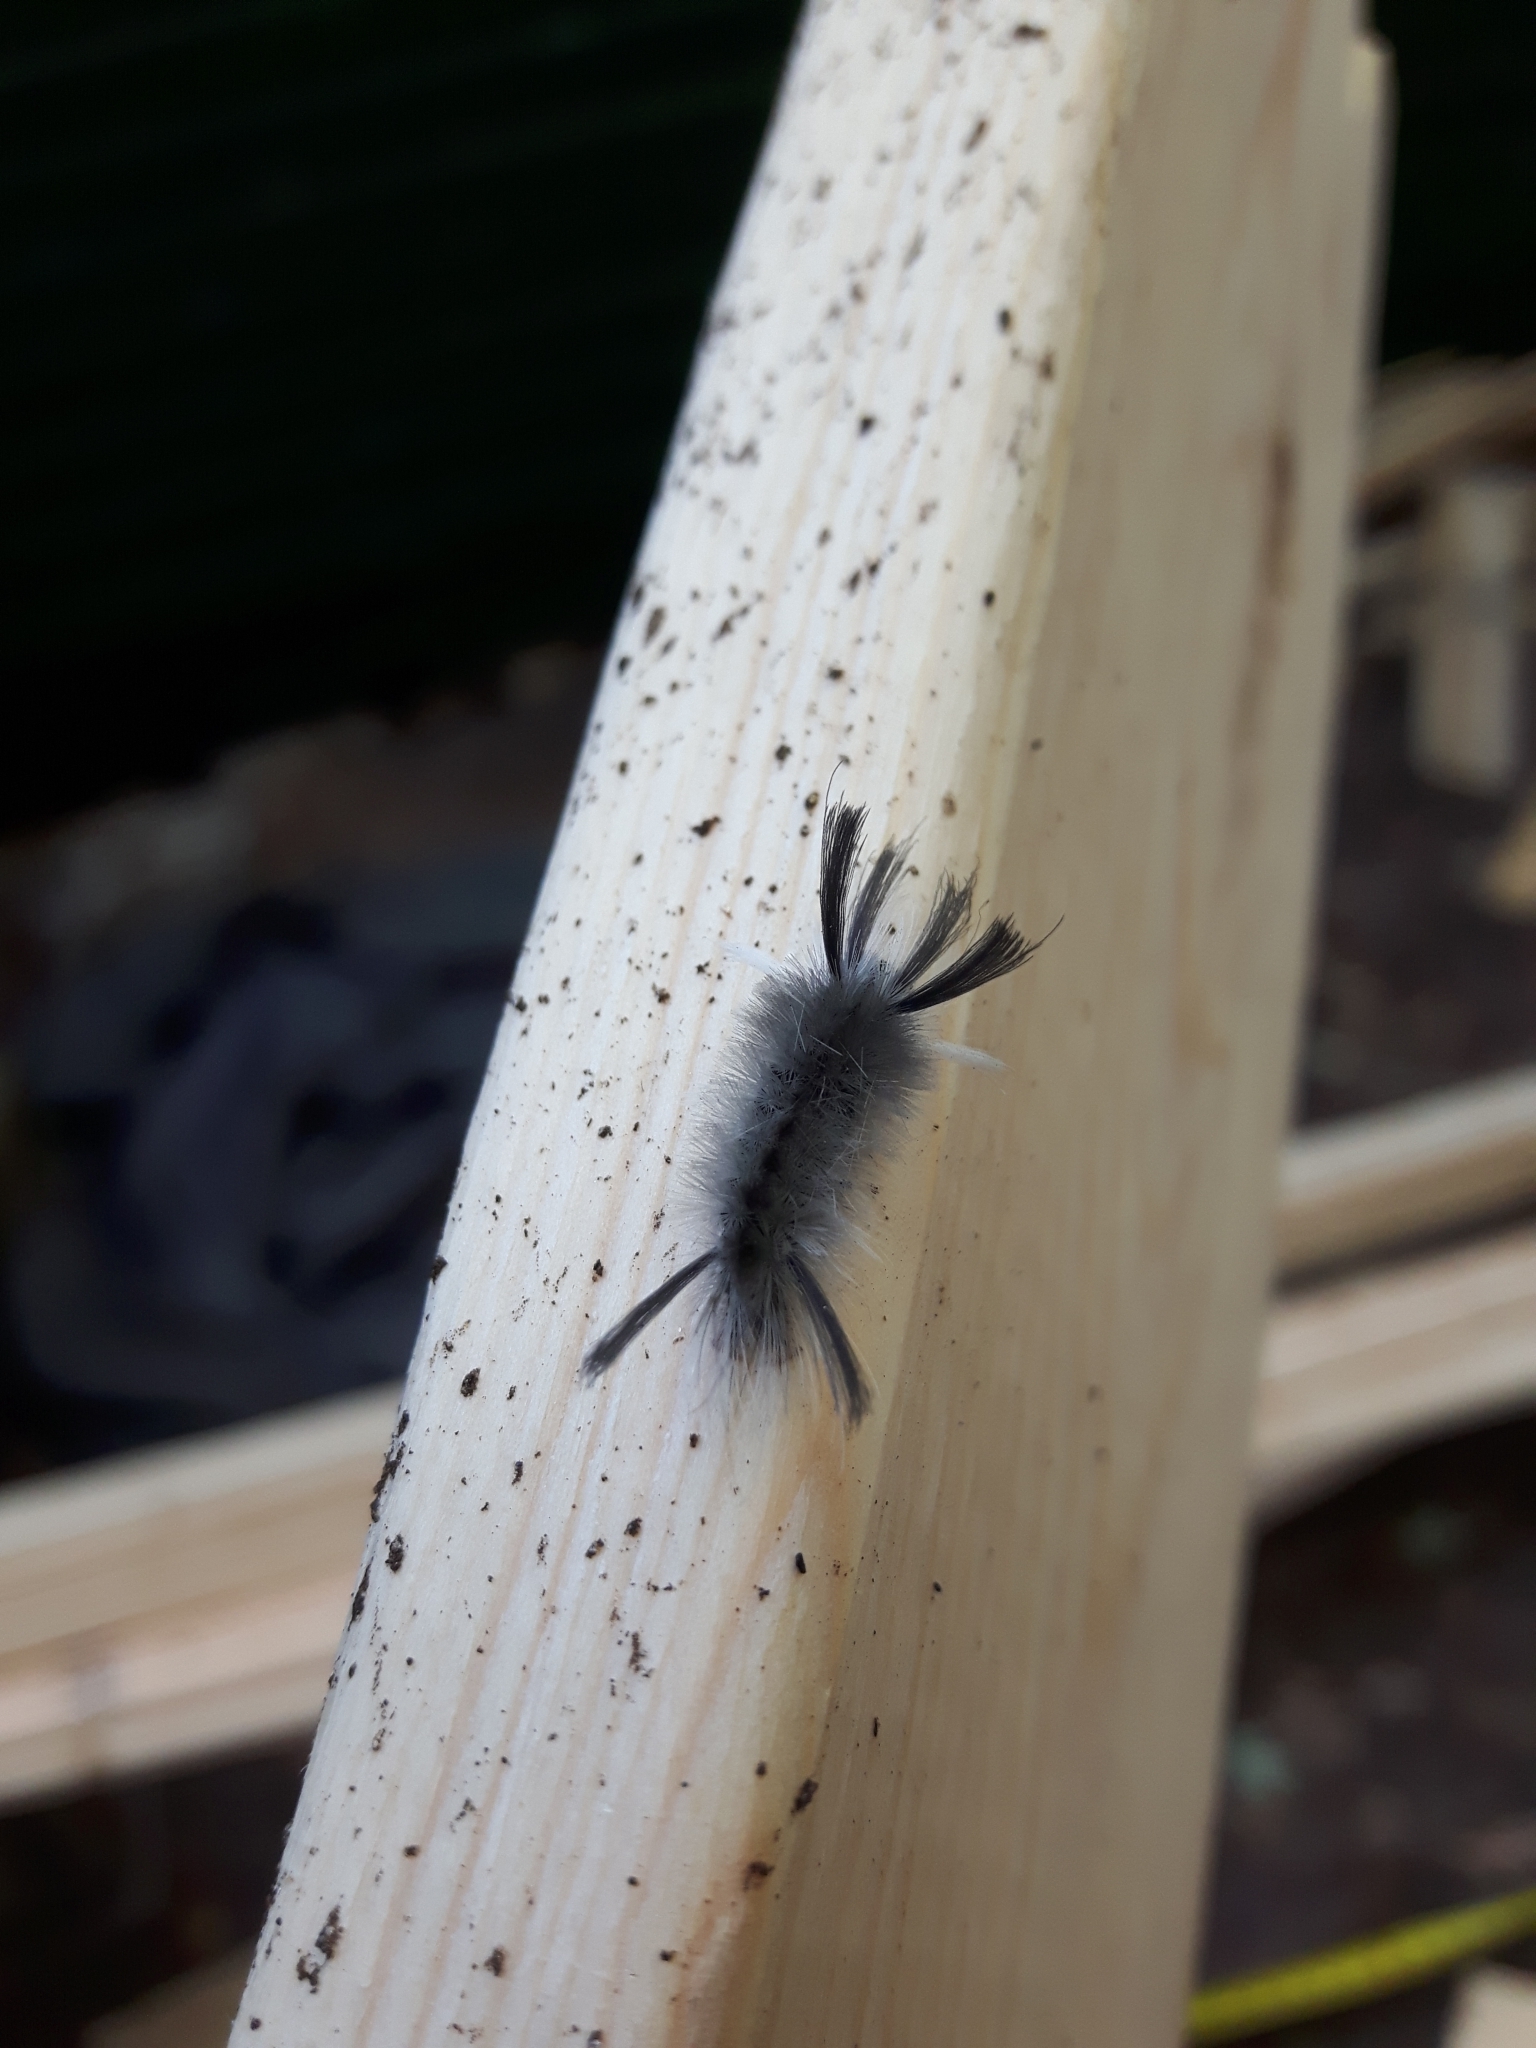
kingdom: Animalia
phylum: Arthropoda
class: Insecta
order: Lepidoptera
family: Erebidae
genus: Halysidota
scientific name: Halysidota tessellaris
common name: Banded tussock moth
